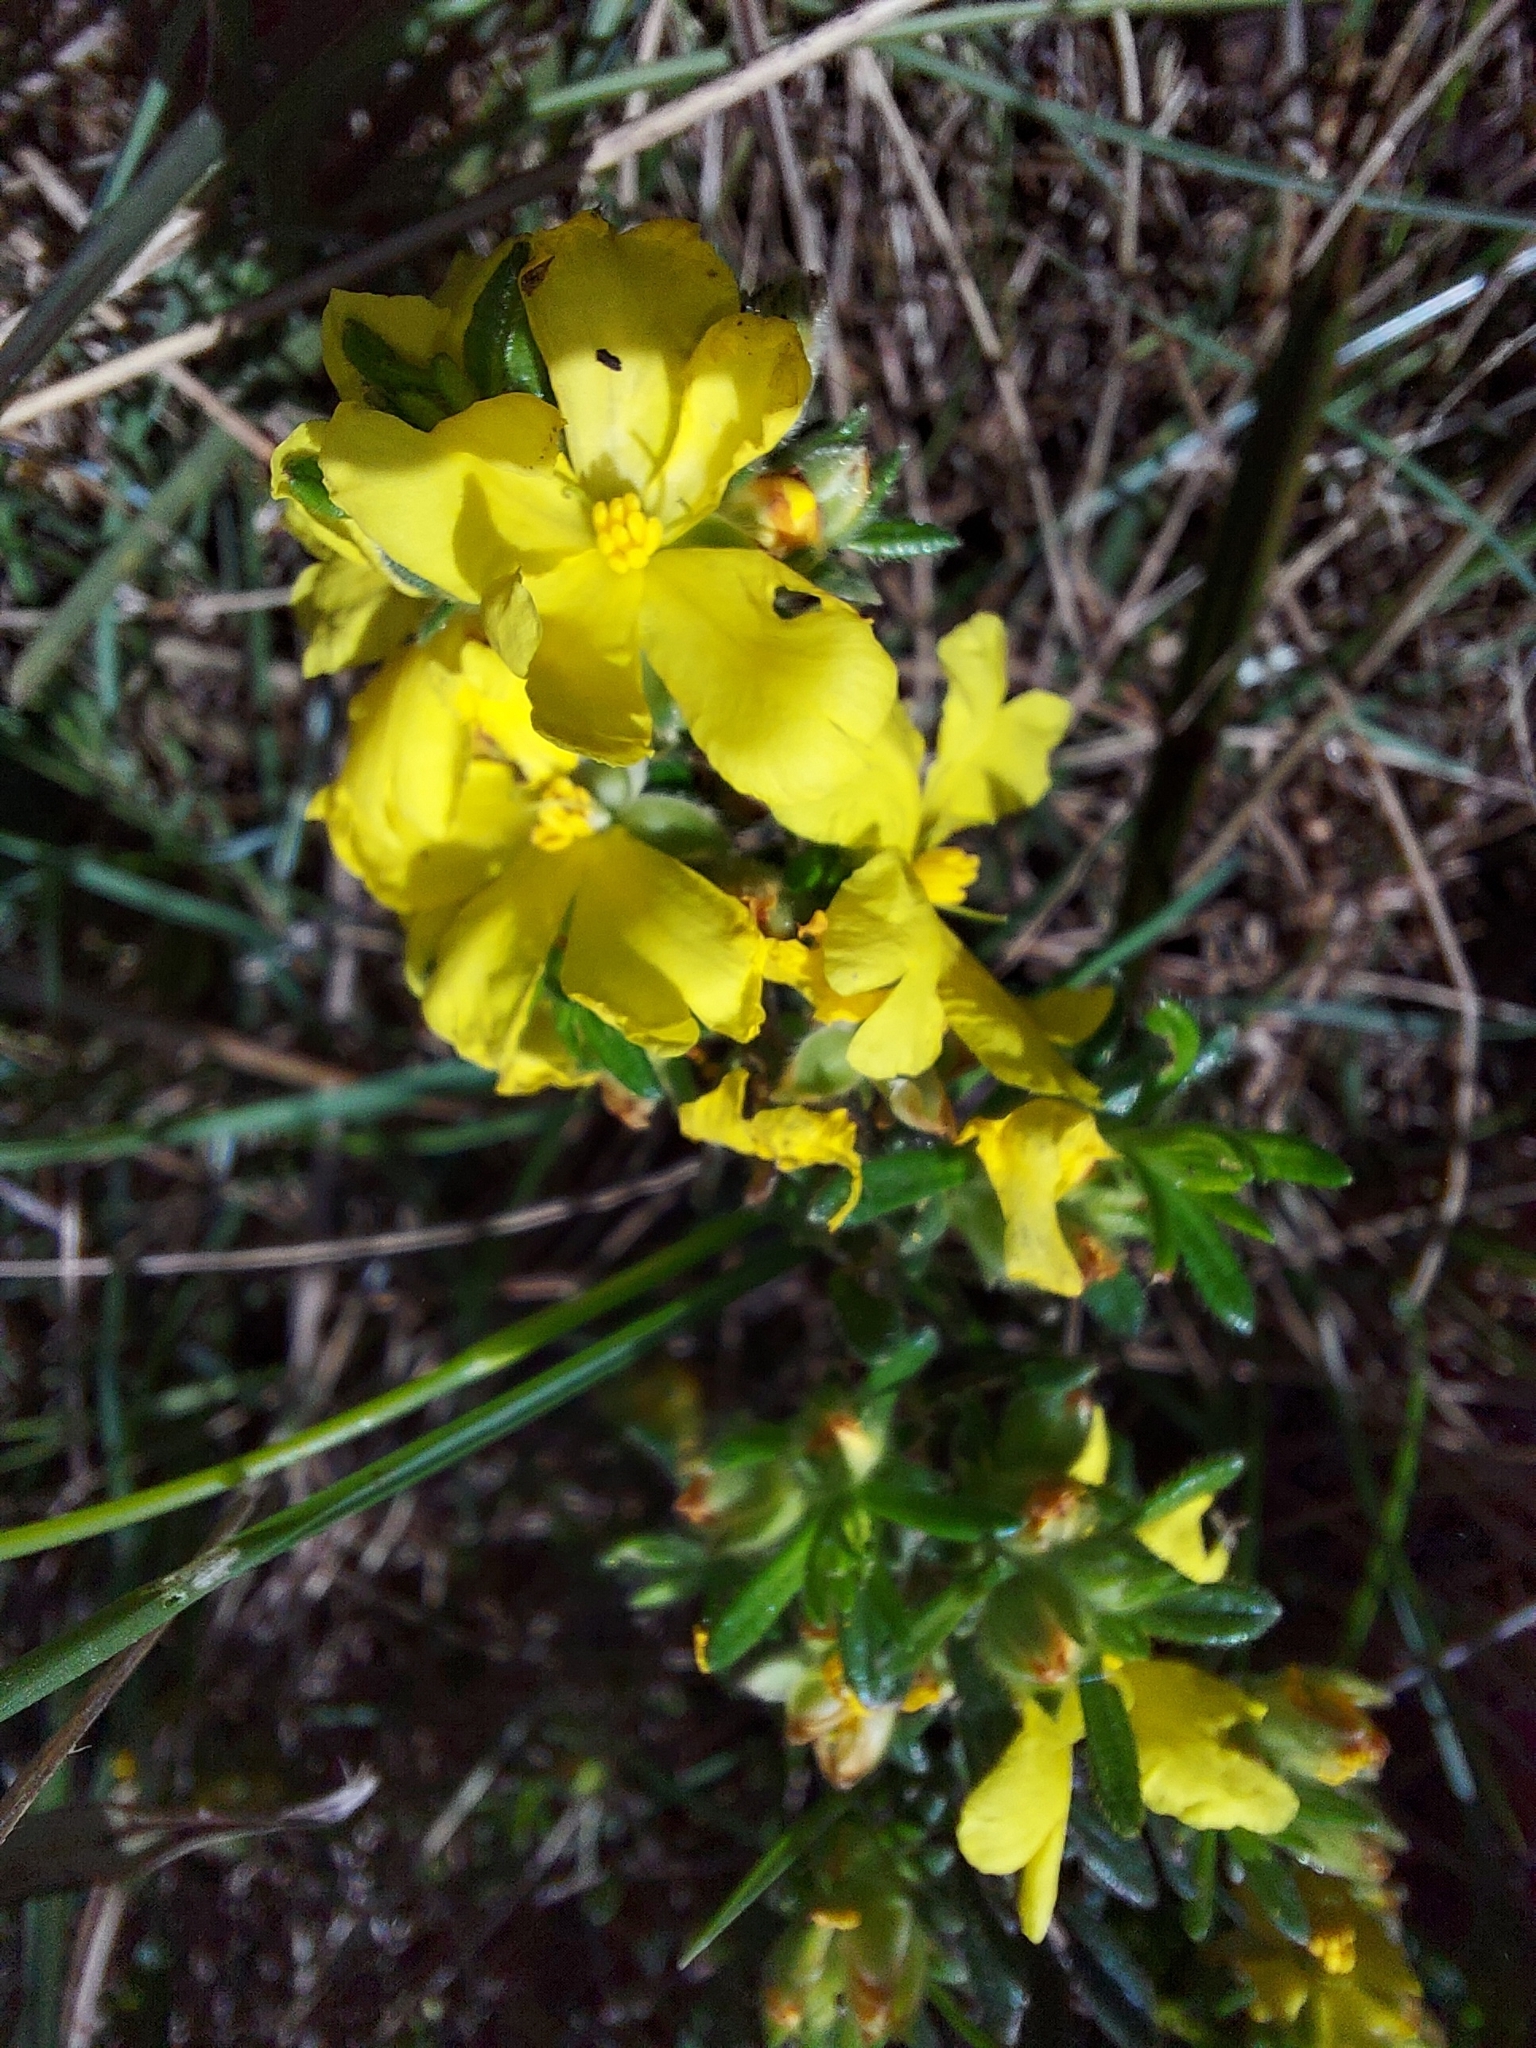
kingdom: Plantae
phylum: Tracheophyta
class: Magnoliopsida
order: Dilleniales
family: Dilleniaceae
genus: Hibbertia
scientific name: Hibbertia sericea
